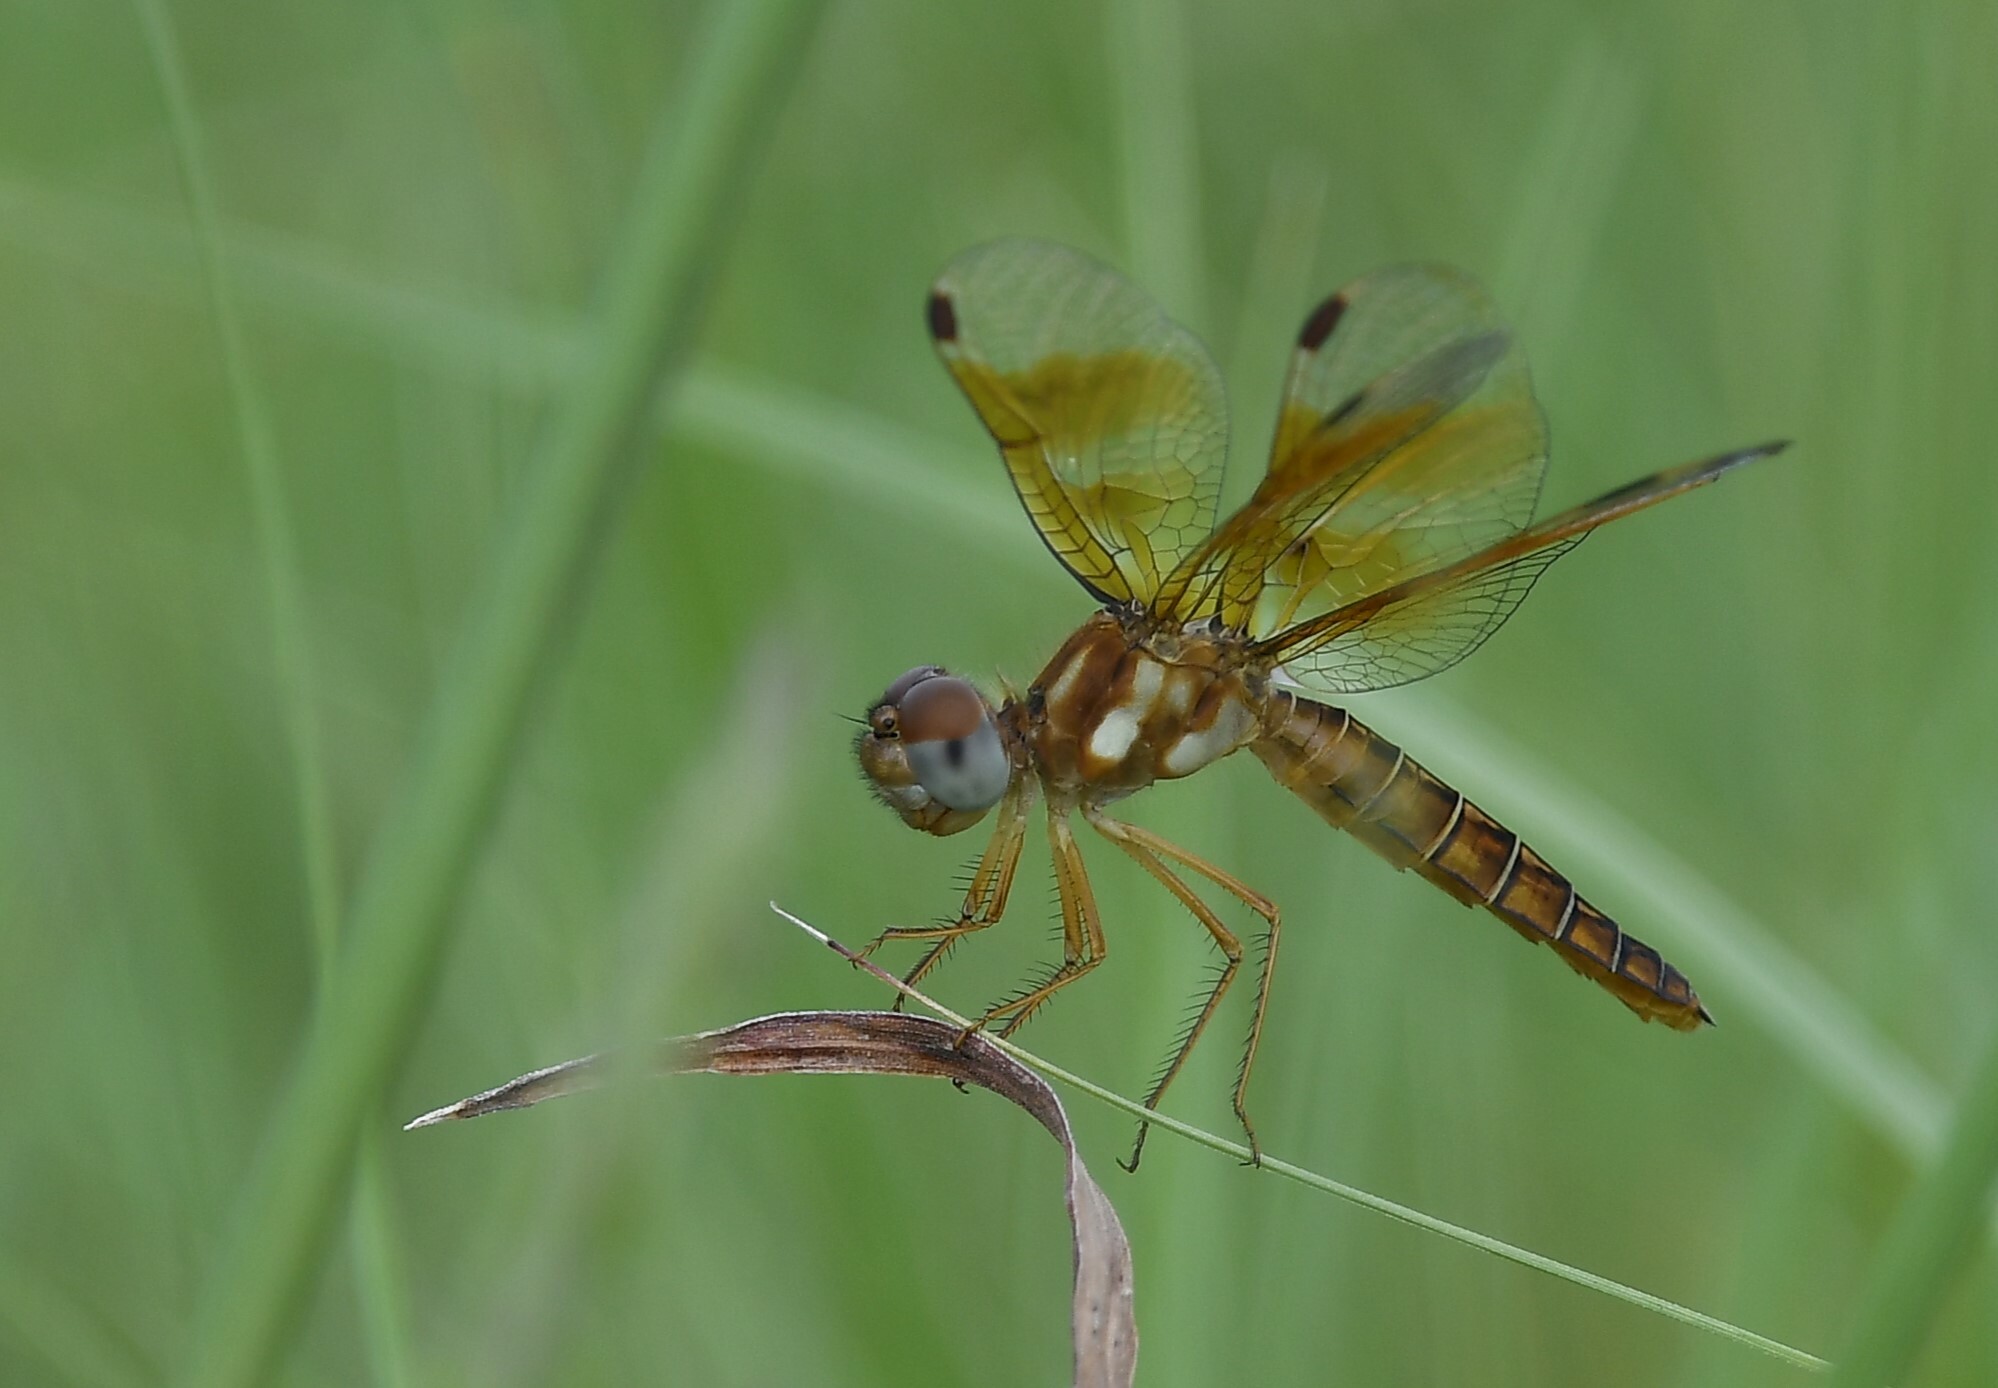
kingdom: Animalia
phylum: Arthropoda
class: Insecta
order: Odonata
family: Libellulidae
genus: Perithemis
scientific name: Perithemis tenera
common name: Eastern amberwing
